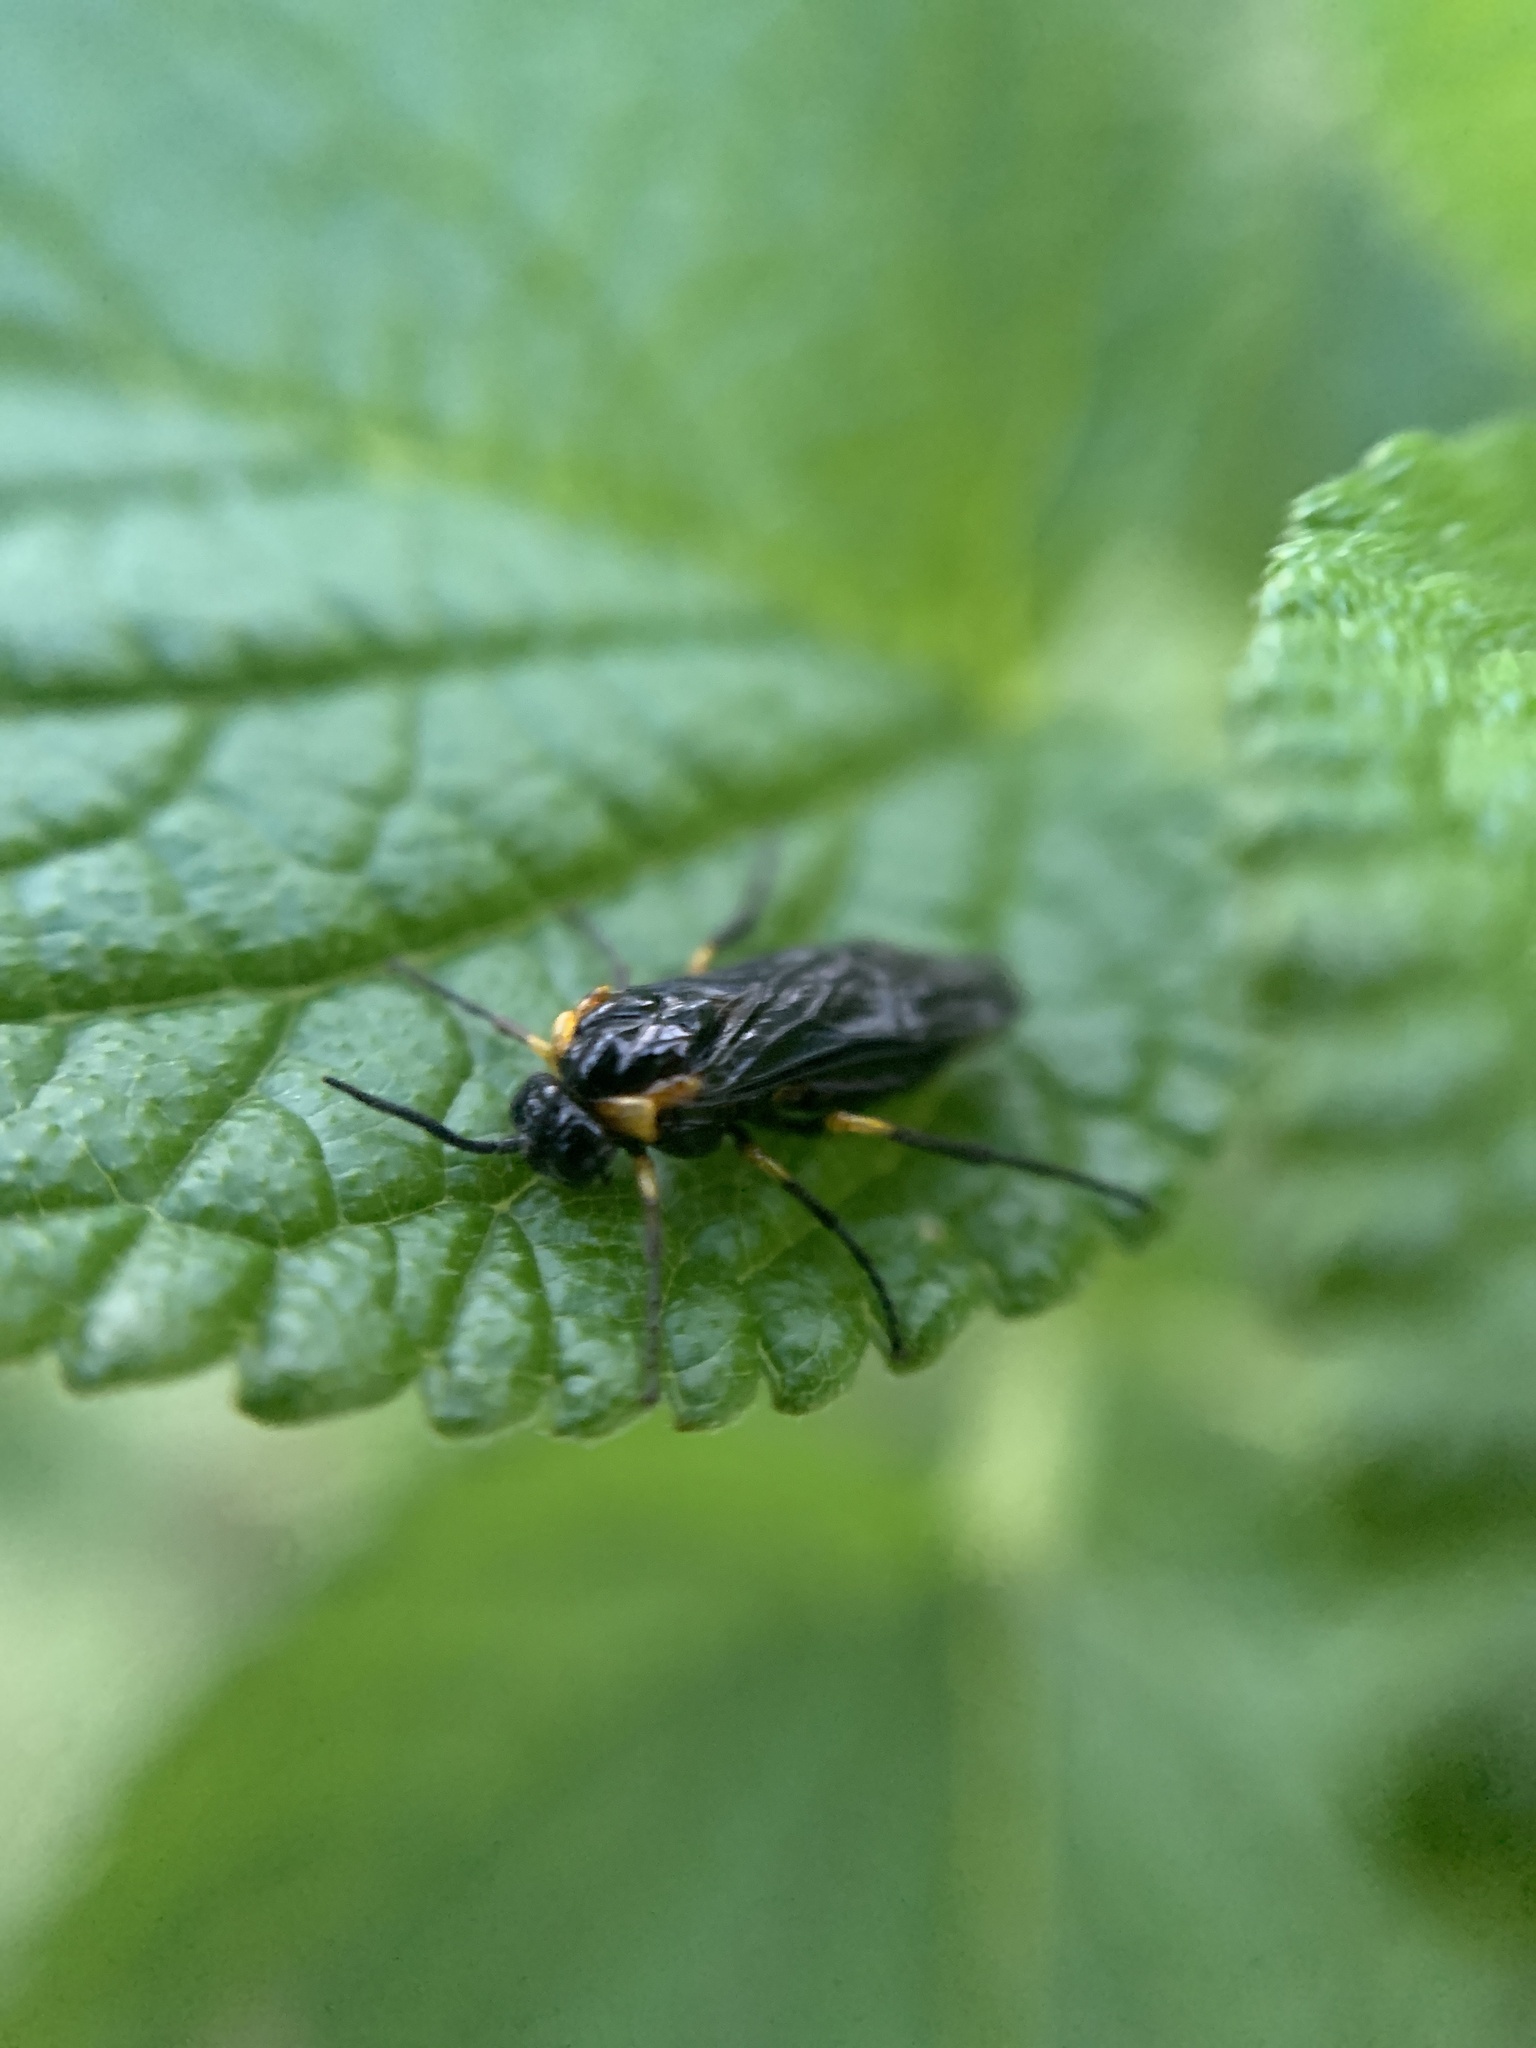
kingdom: Animalia
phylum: Arthropoda
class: Insecta
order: Hymenoptera
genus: Adurgoa
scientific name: Adurgoa
